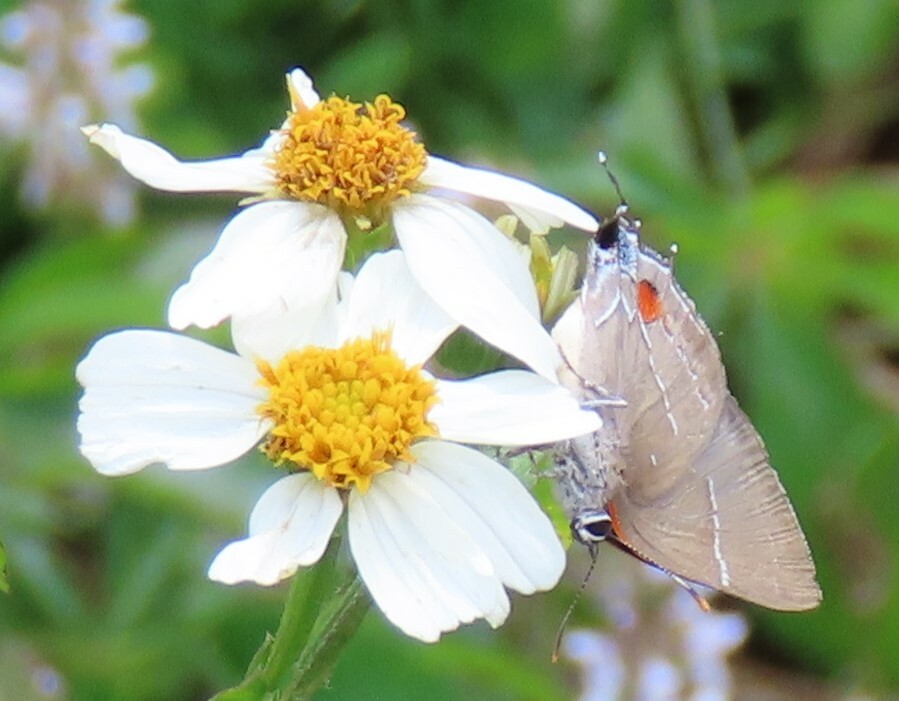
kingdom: Animalia
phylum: Arthropoda
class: Insecta
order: Lepidoptera
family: Lycaenidae
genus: Parrhasius
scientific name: Parrhasius m-album
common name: White m hairstreak
